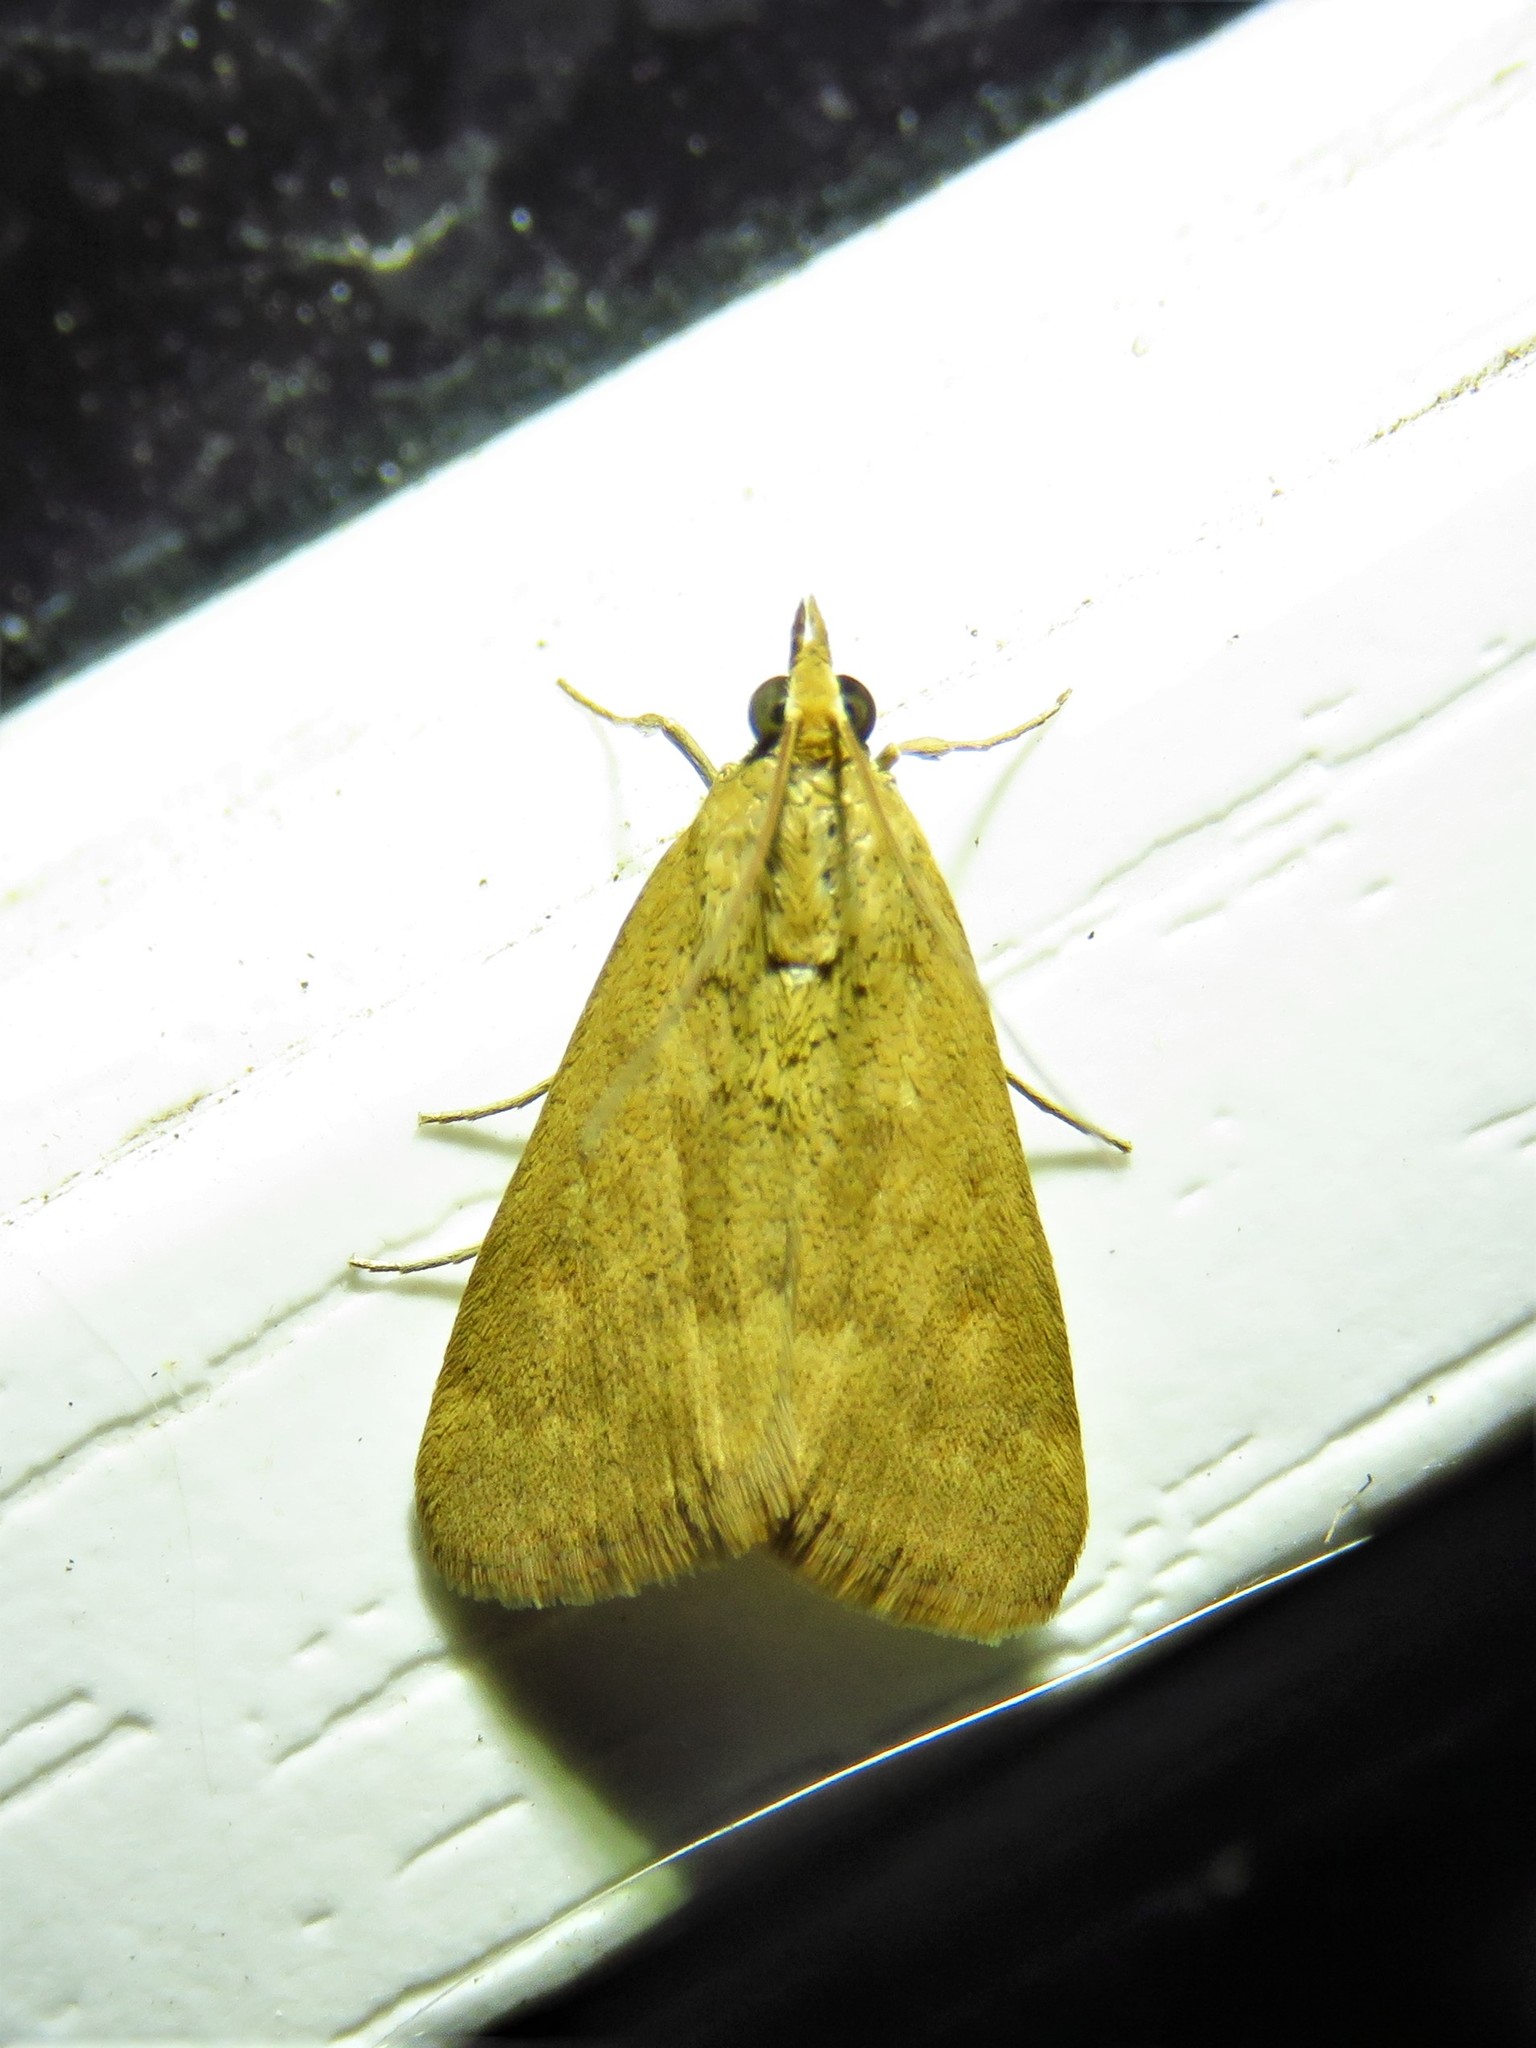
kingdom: Animalia
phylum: Arthropoda
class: Insecta
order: Lepidoptera
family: Crambidae
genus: Achyra
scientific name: Achyra rantalis
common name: Garden webworm
